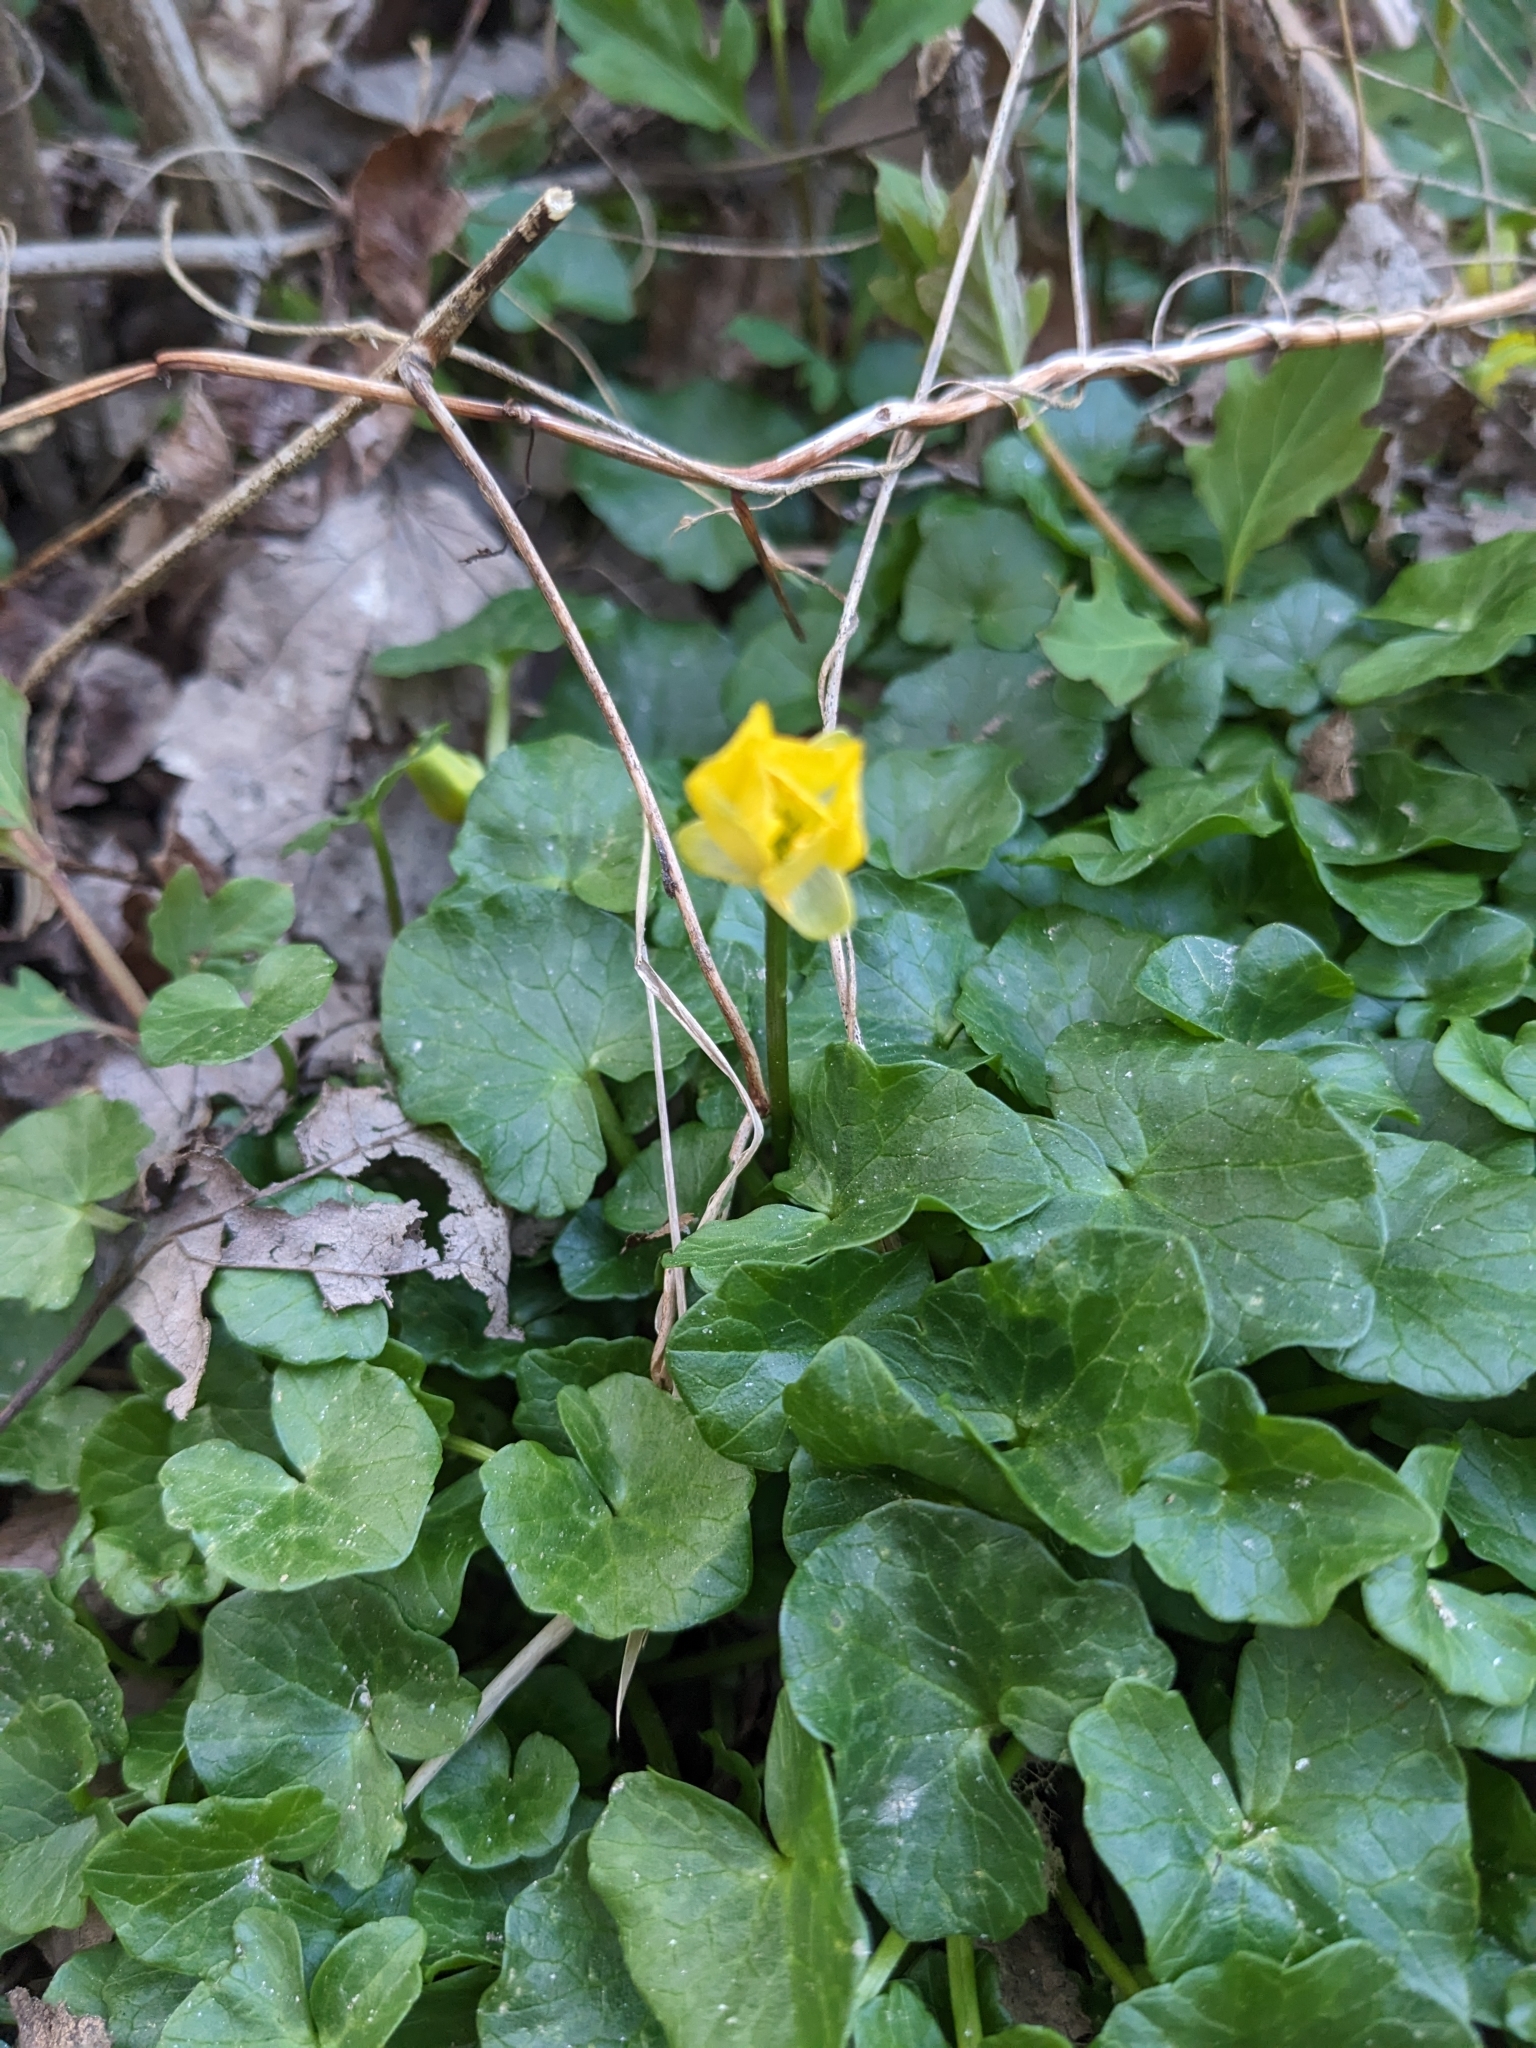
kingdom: Plantae
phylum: Tracheophyta
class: Magnoliopsida
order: Ranunculales
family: Ranunculaceae
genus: Ficaria
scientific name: Ficaria verna
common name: Lesser celandine
